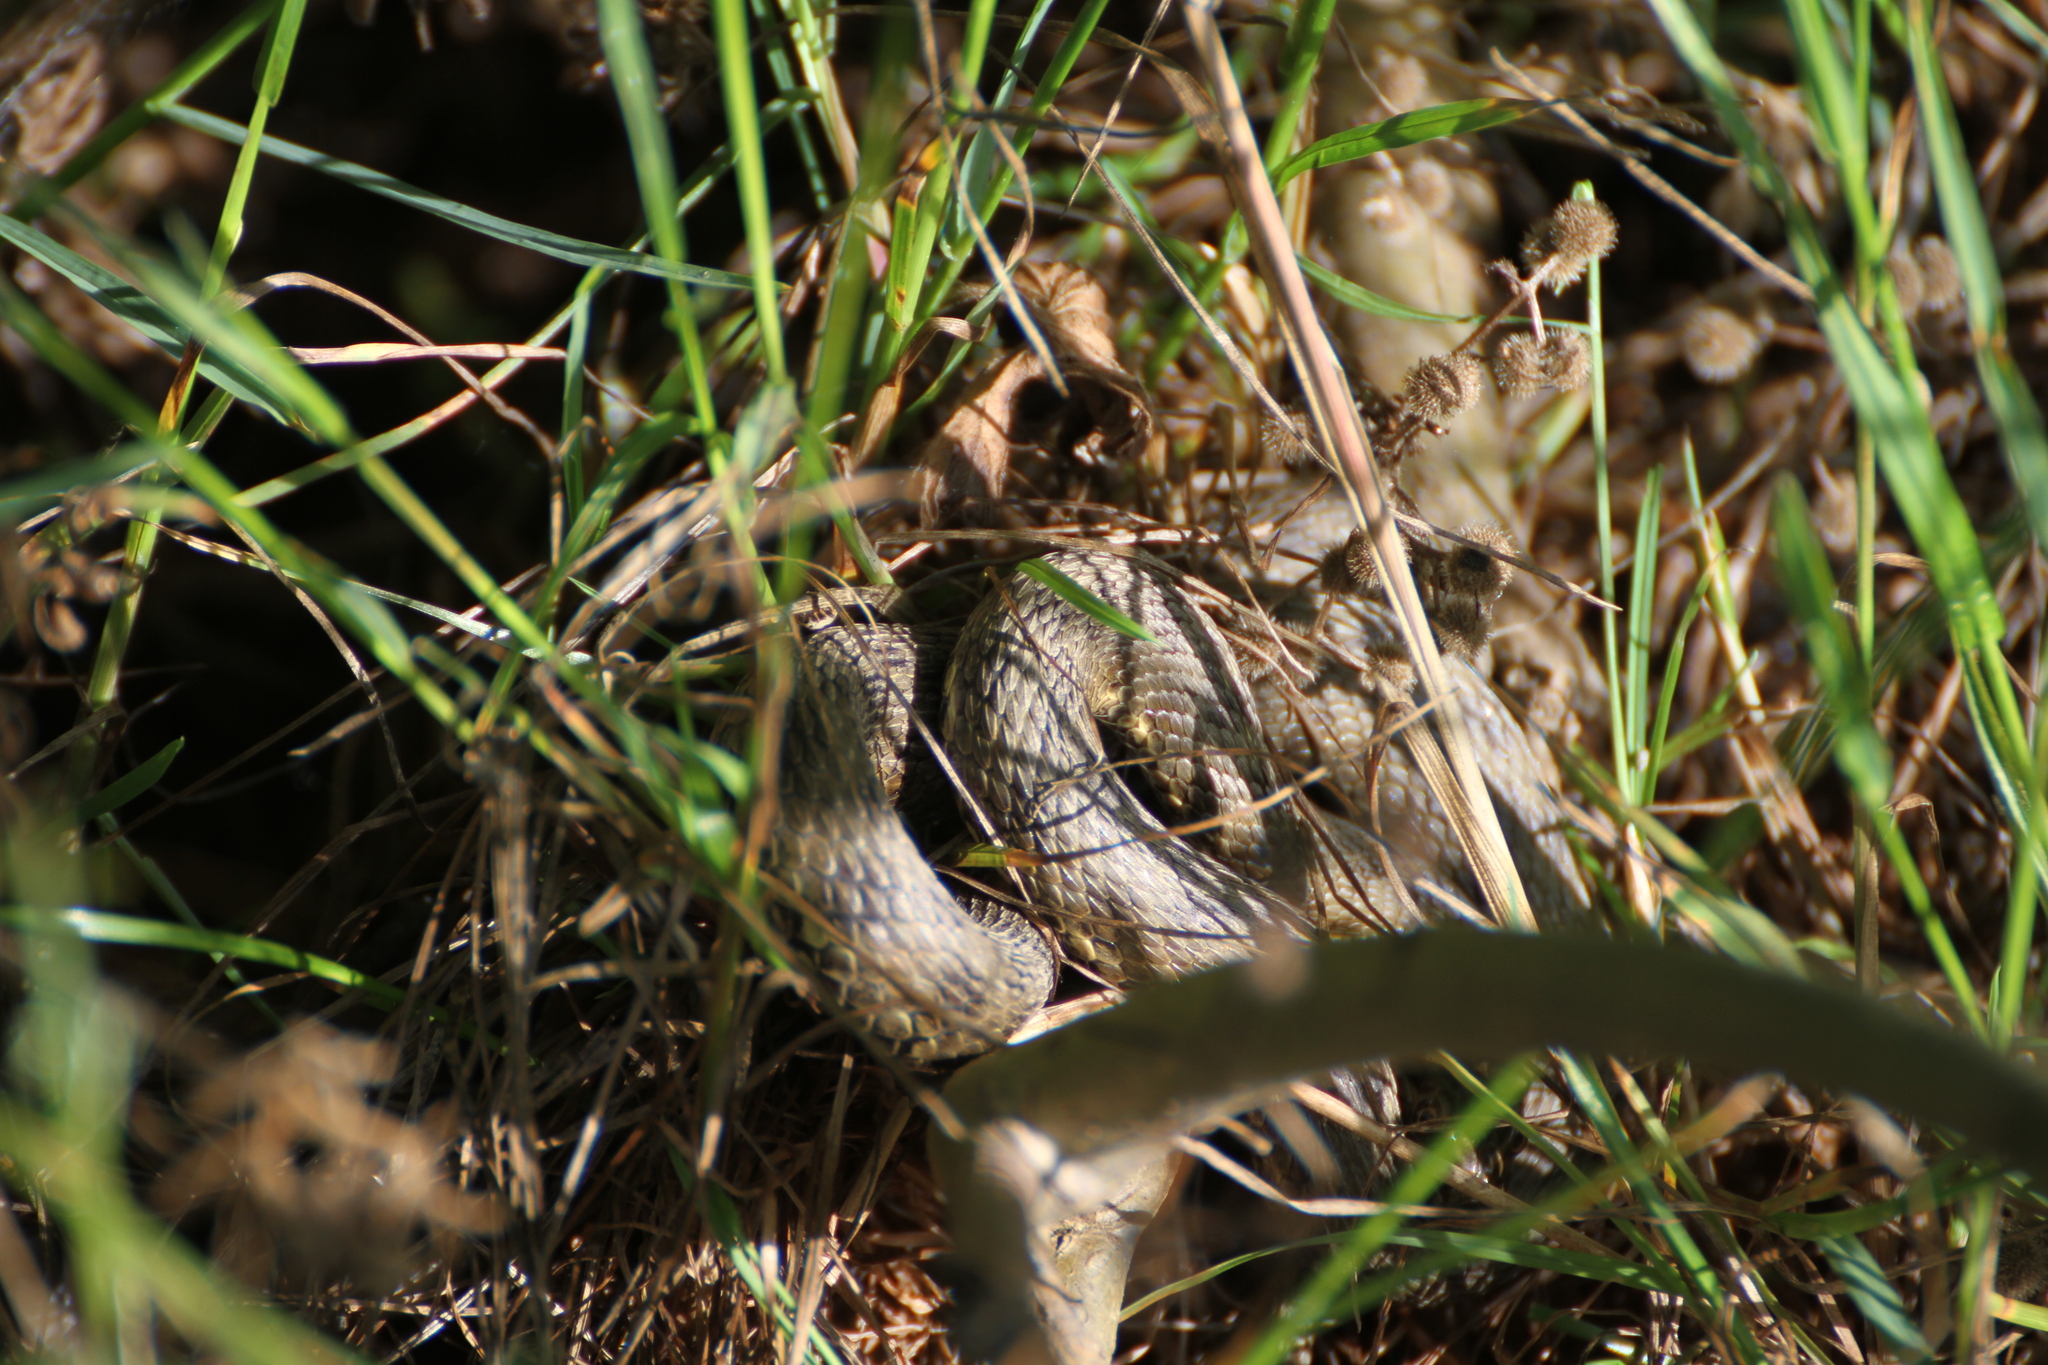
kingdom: Animalia
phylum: Chordata
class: Squamata
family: Colubridae
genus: Natrix
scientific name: Natrix maura
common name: Viperine water snake
